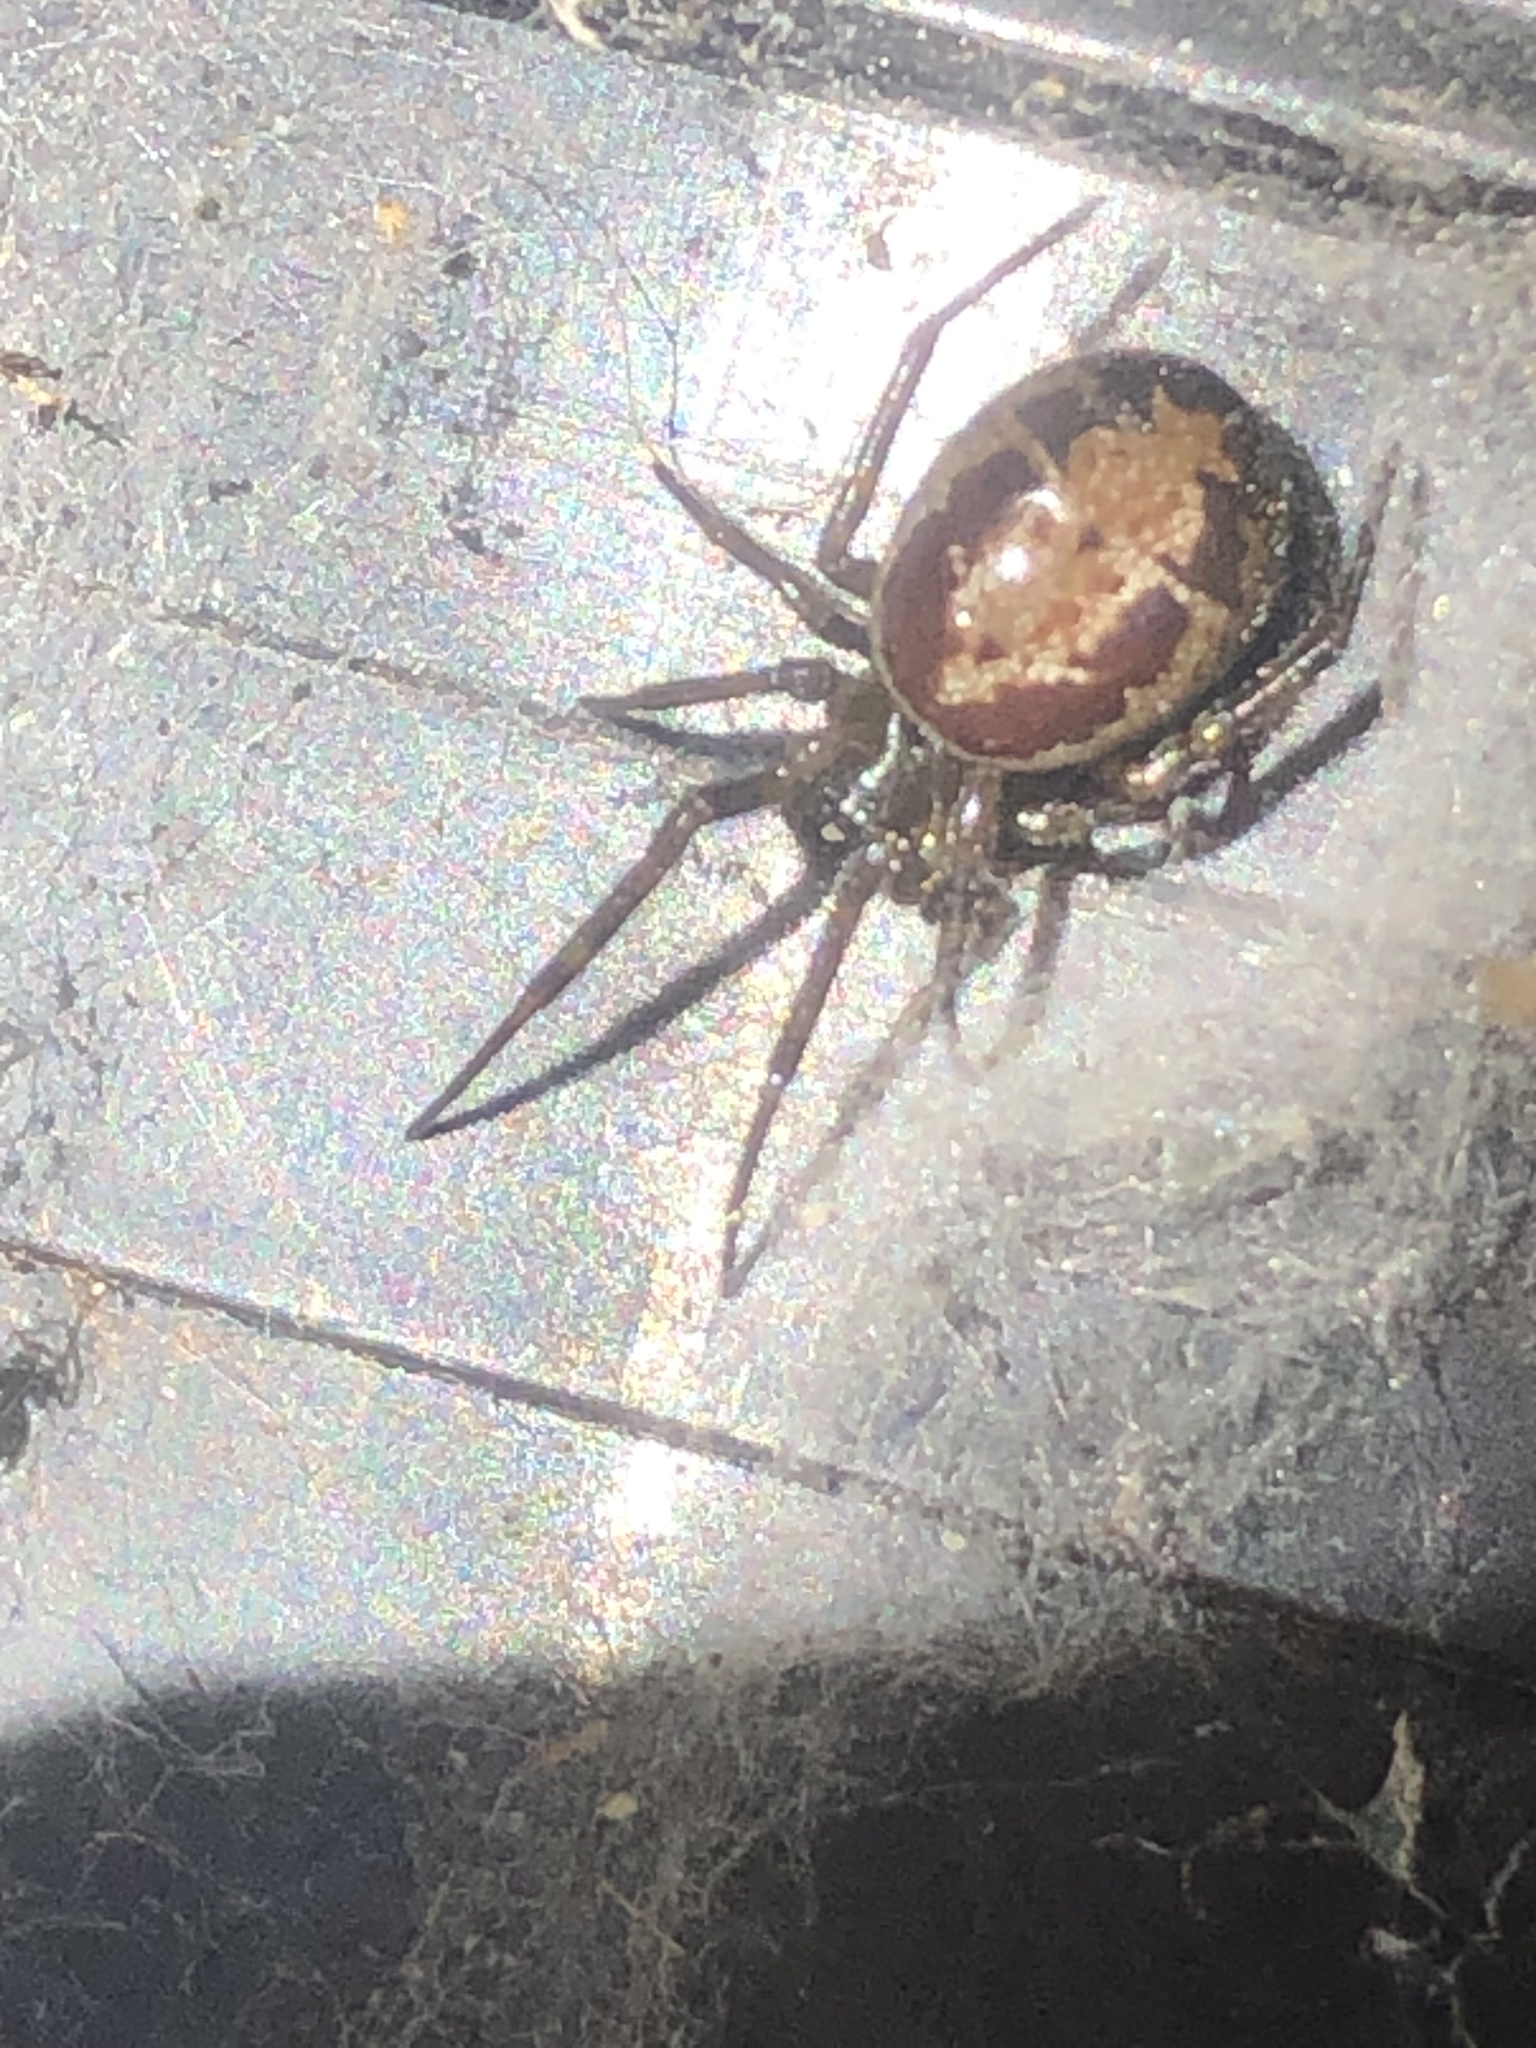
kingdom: Animalia
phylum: Arthropoda
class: Arachnida
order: Araneae
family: Theridiidae
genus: Steatoda
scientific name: Steatoda nobilis
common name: Cobweb weaver
